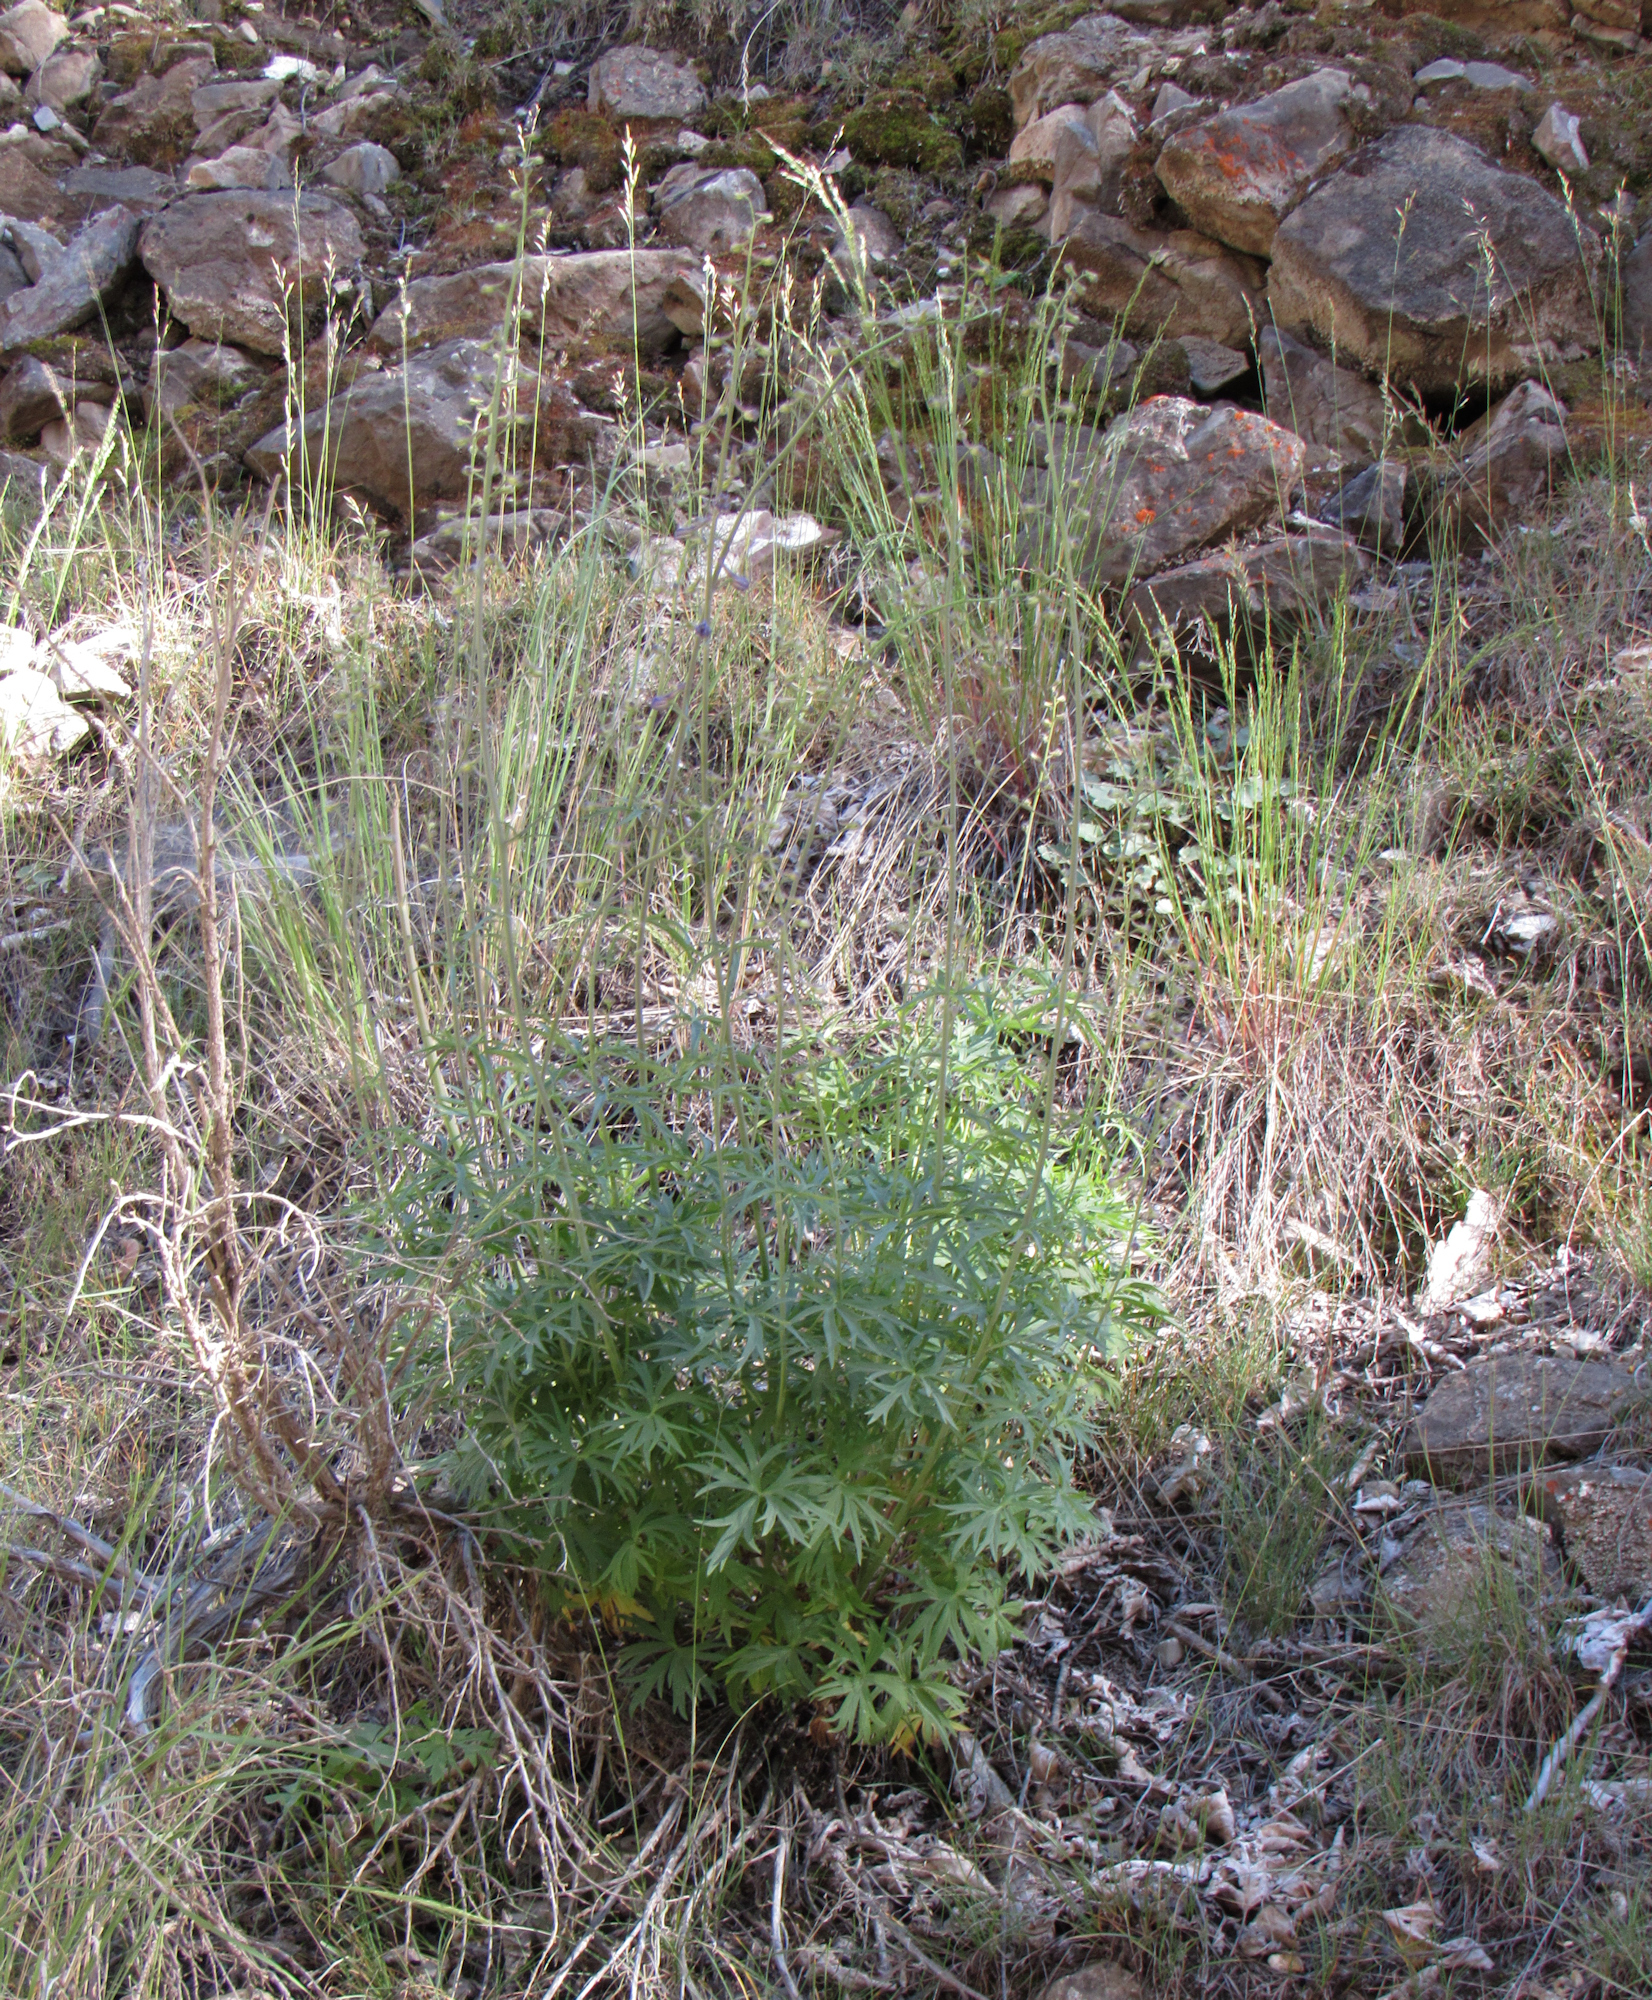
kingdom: Plantae
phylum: Tracheophyta
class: Magnoliopsida
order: Ranunculales
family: Ranunculaceae
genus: Delphinium
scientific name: Delphinium glaucescens
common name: Glaucous larkspur
